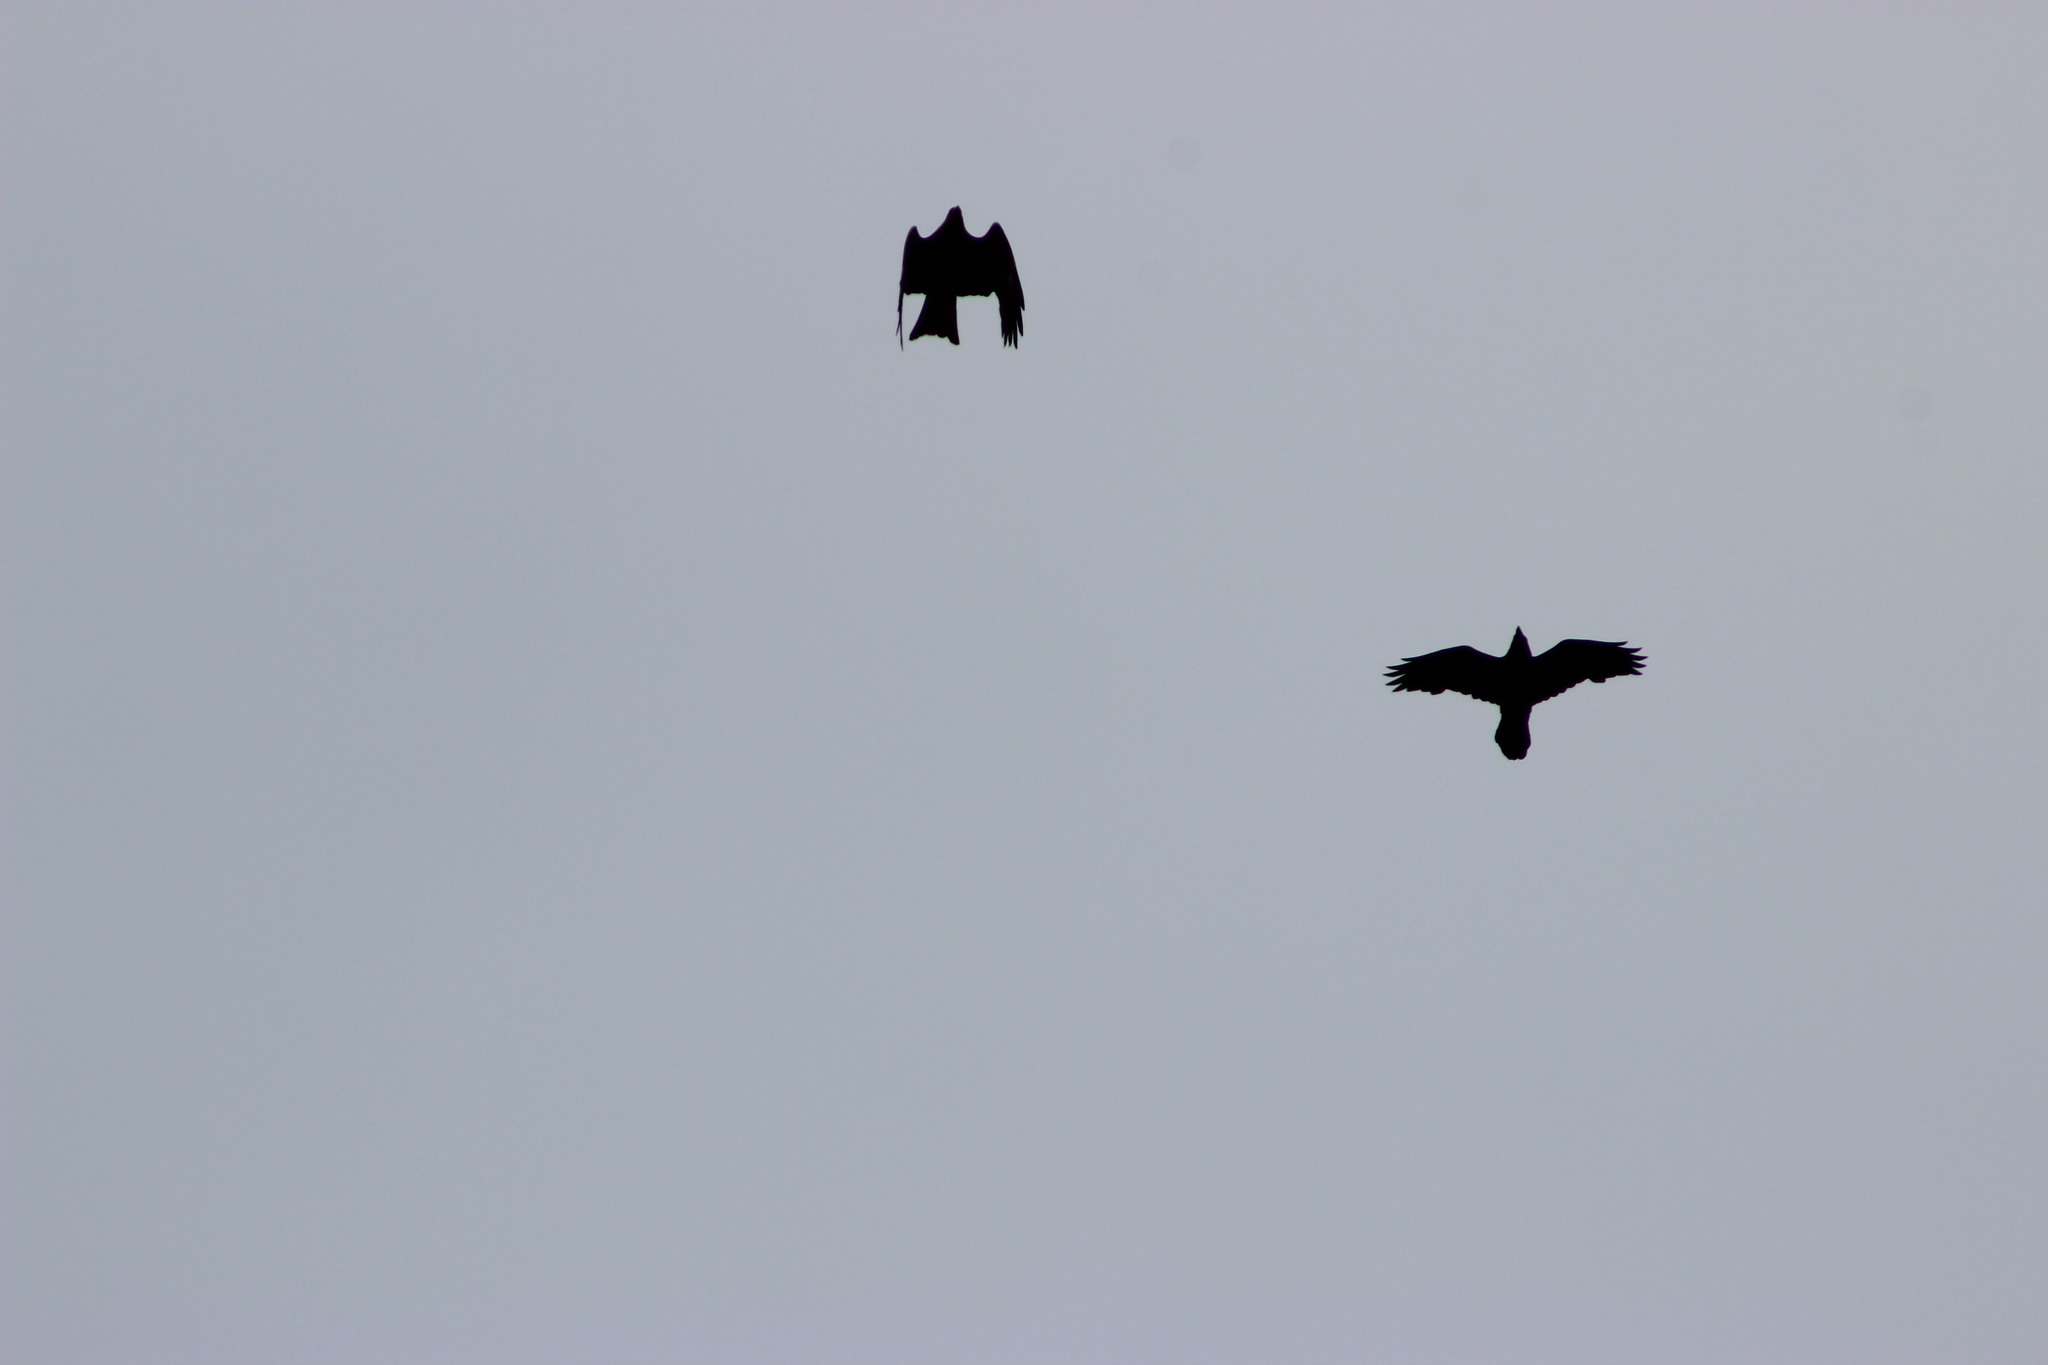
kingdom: Animalia
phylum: Chordata
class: Aves
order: Passeriformes
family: Corvidae
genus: Corvus
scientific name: Corvus corax
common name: Common raven
